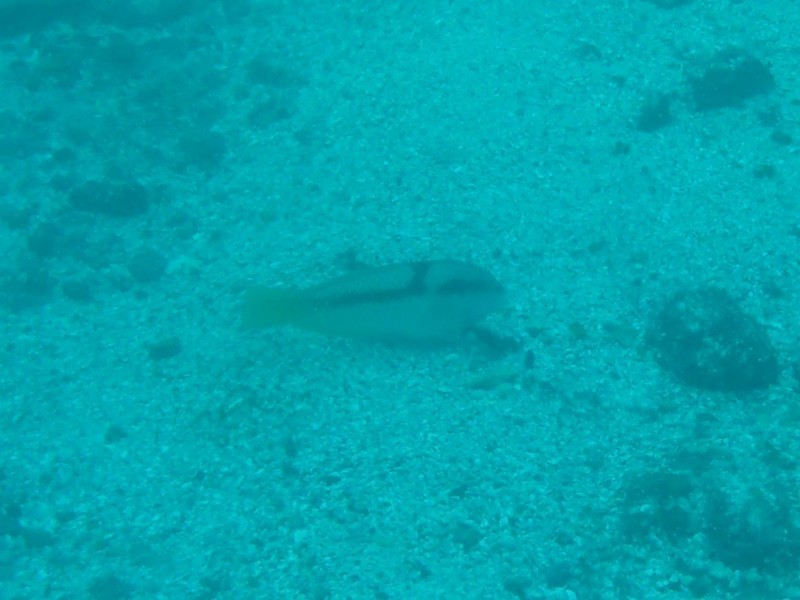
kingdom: Animalia
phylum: Chordata
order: Perciformes
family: Labridae
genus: Halichoeres
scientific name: Halichoeres dispilus
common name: Chameleon wrasse
